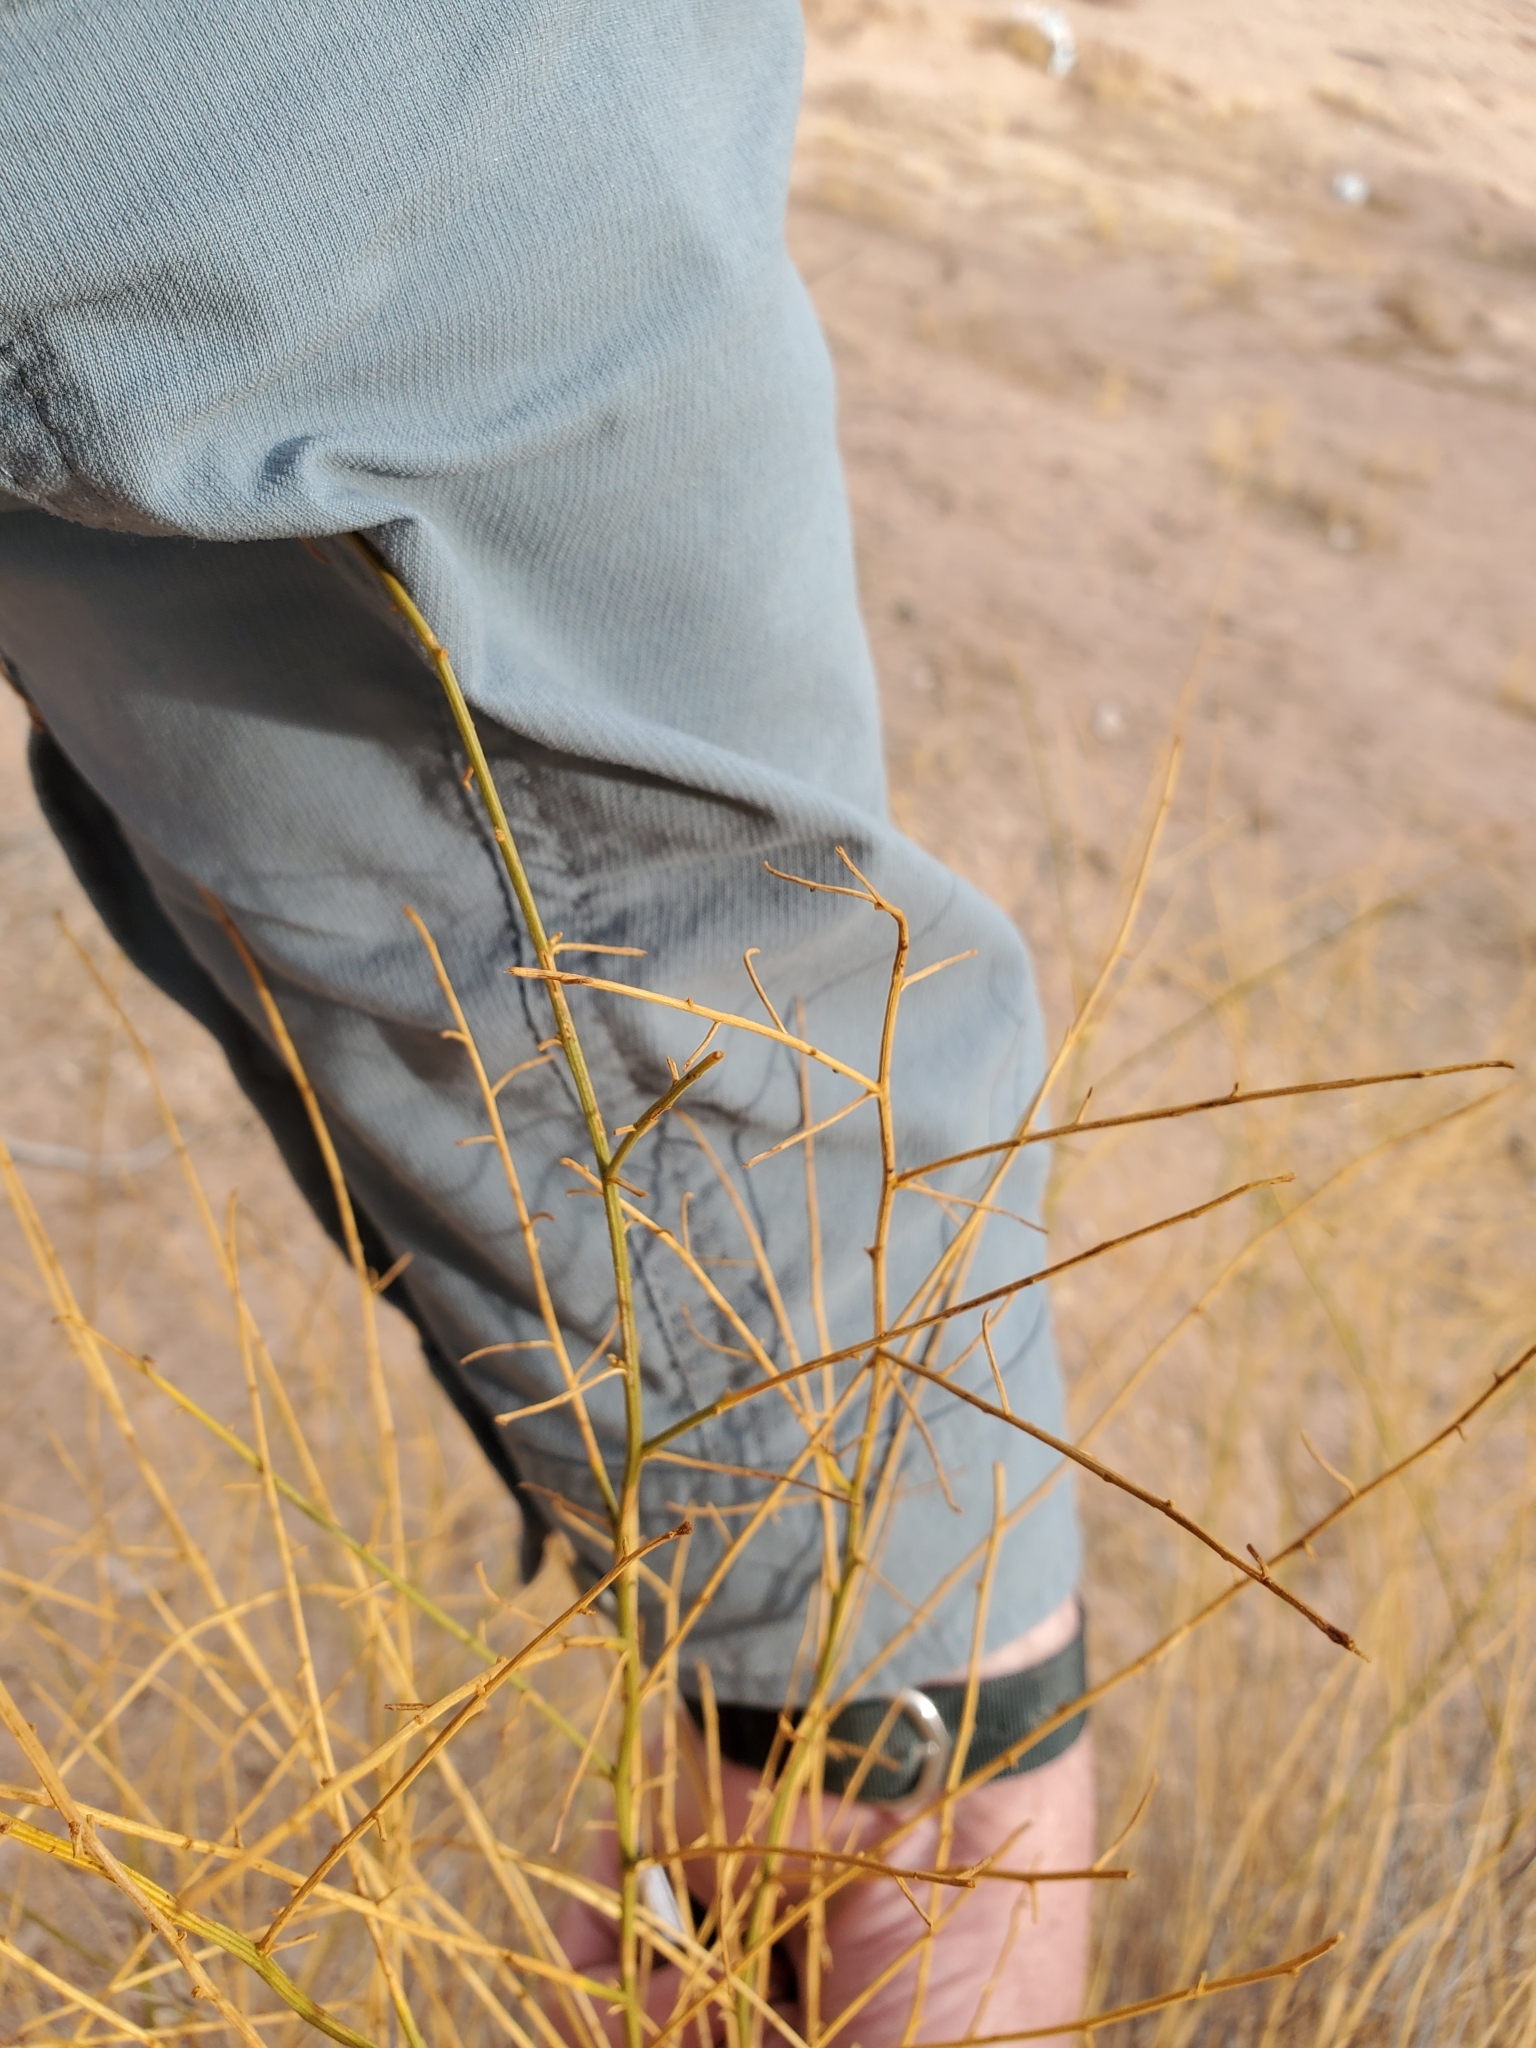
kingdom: Plantae
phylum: Tracheophyta
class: Magnoliopsida
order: Asterales
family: Asteraceae
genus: Ambrosia
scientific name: Ambrosia salsola
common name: Burrobrush
